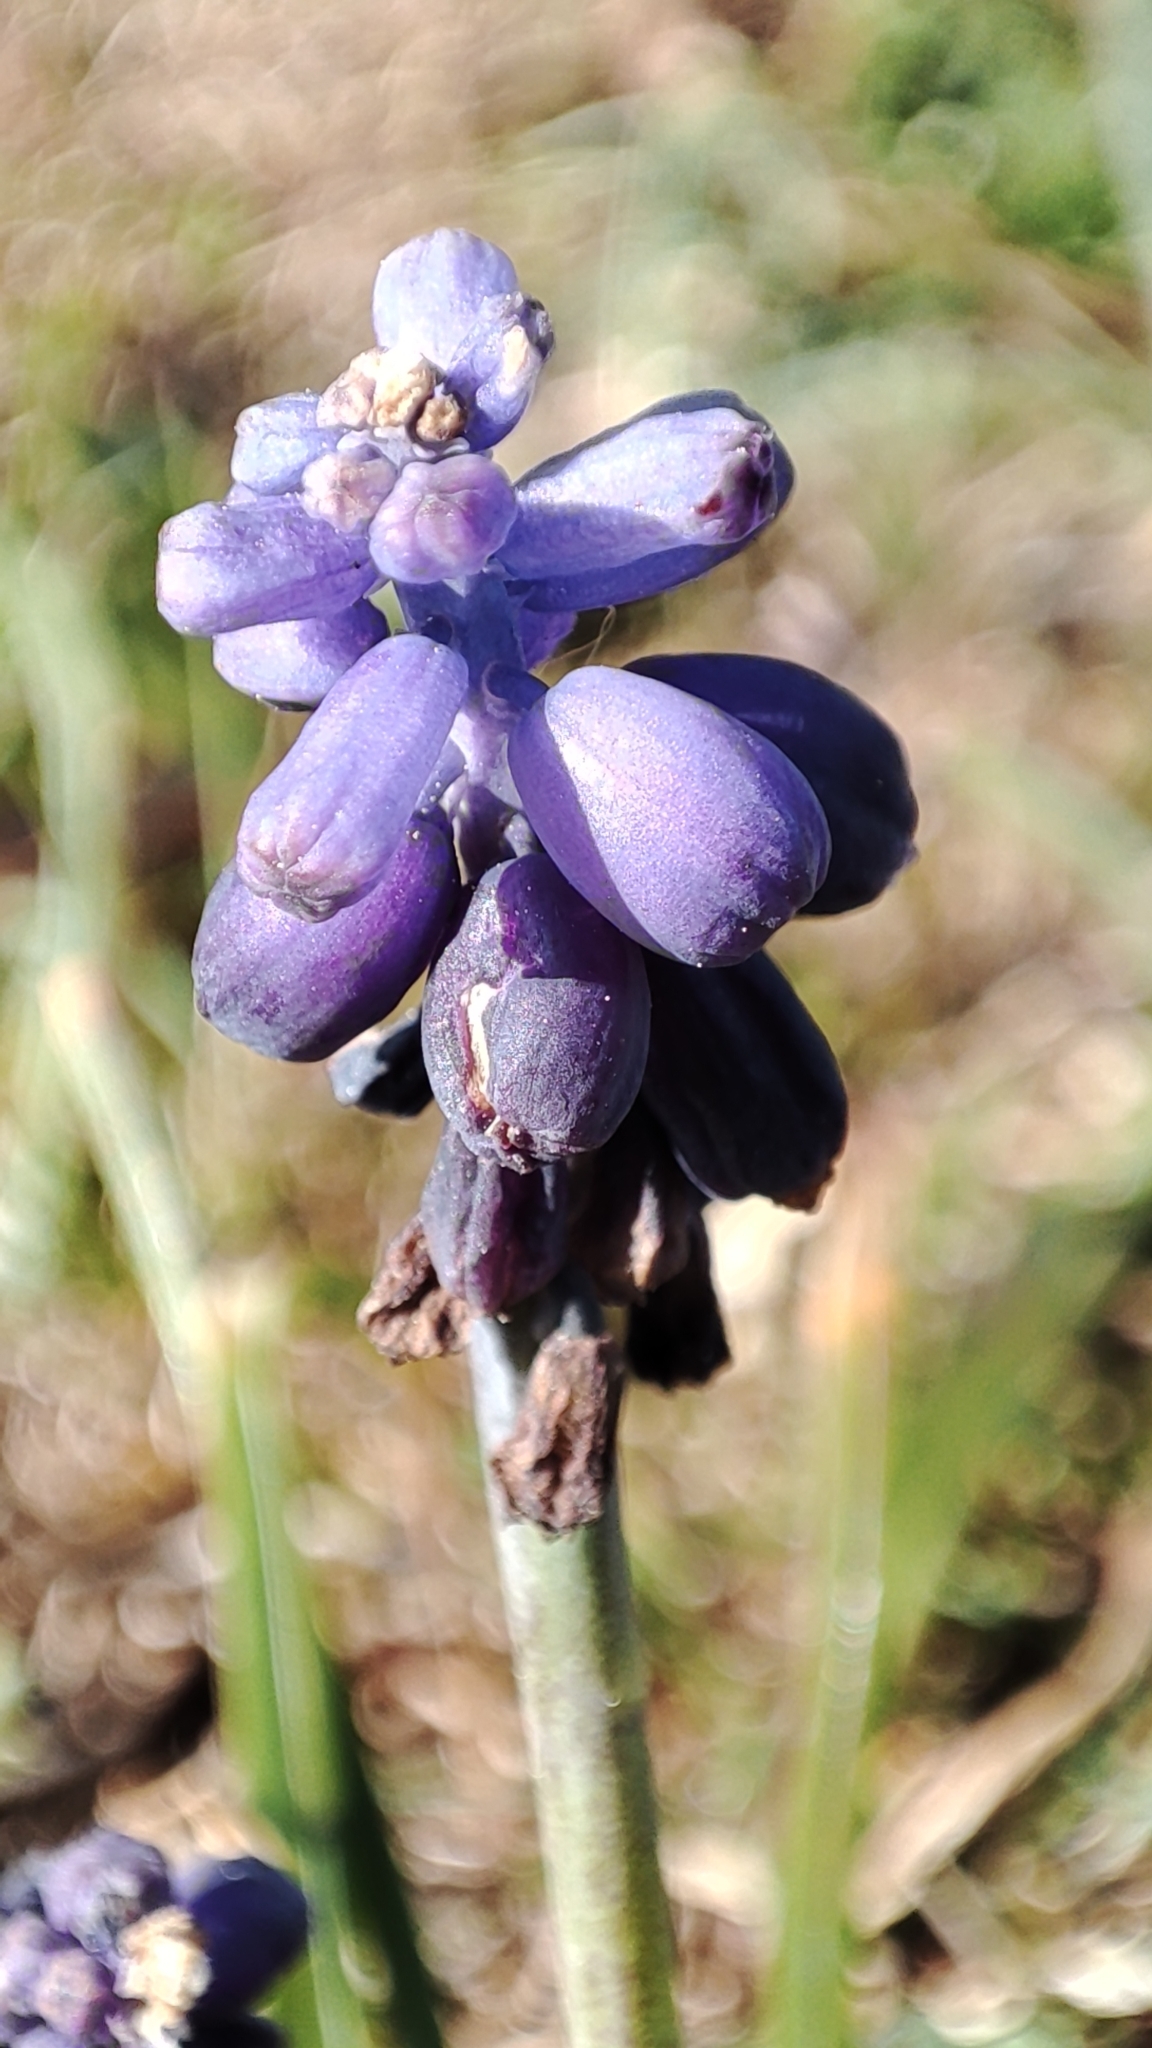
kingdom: Plantae
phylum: Tracheophyta
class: Liliopsida
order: Asparagales
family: Asparagaceae
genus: Muscari
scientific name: Muscari neglectum
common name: Grape-hyacinth
